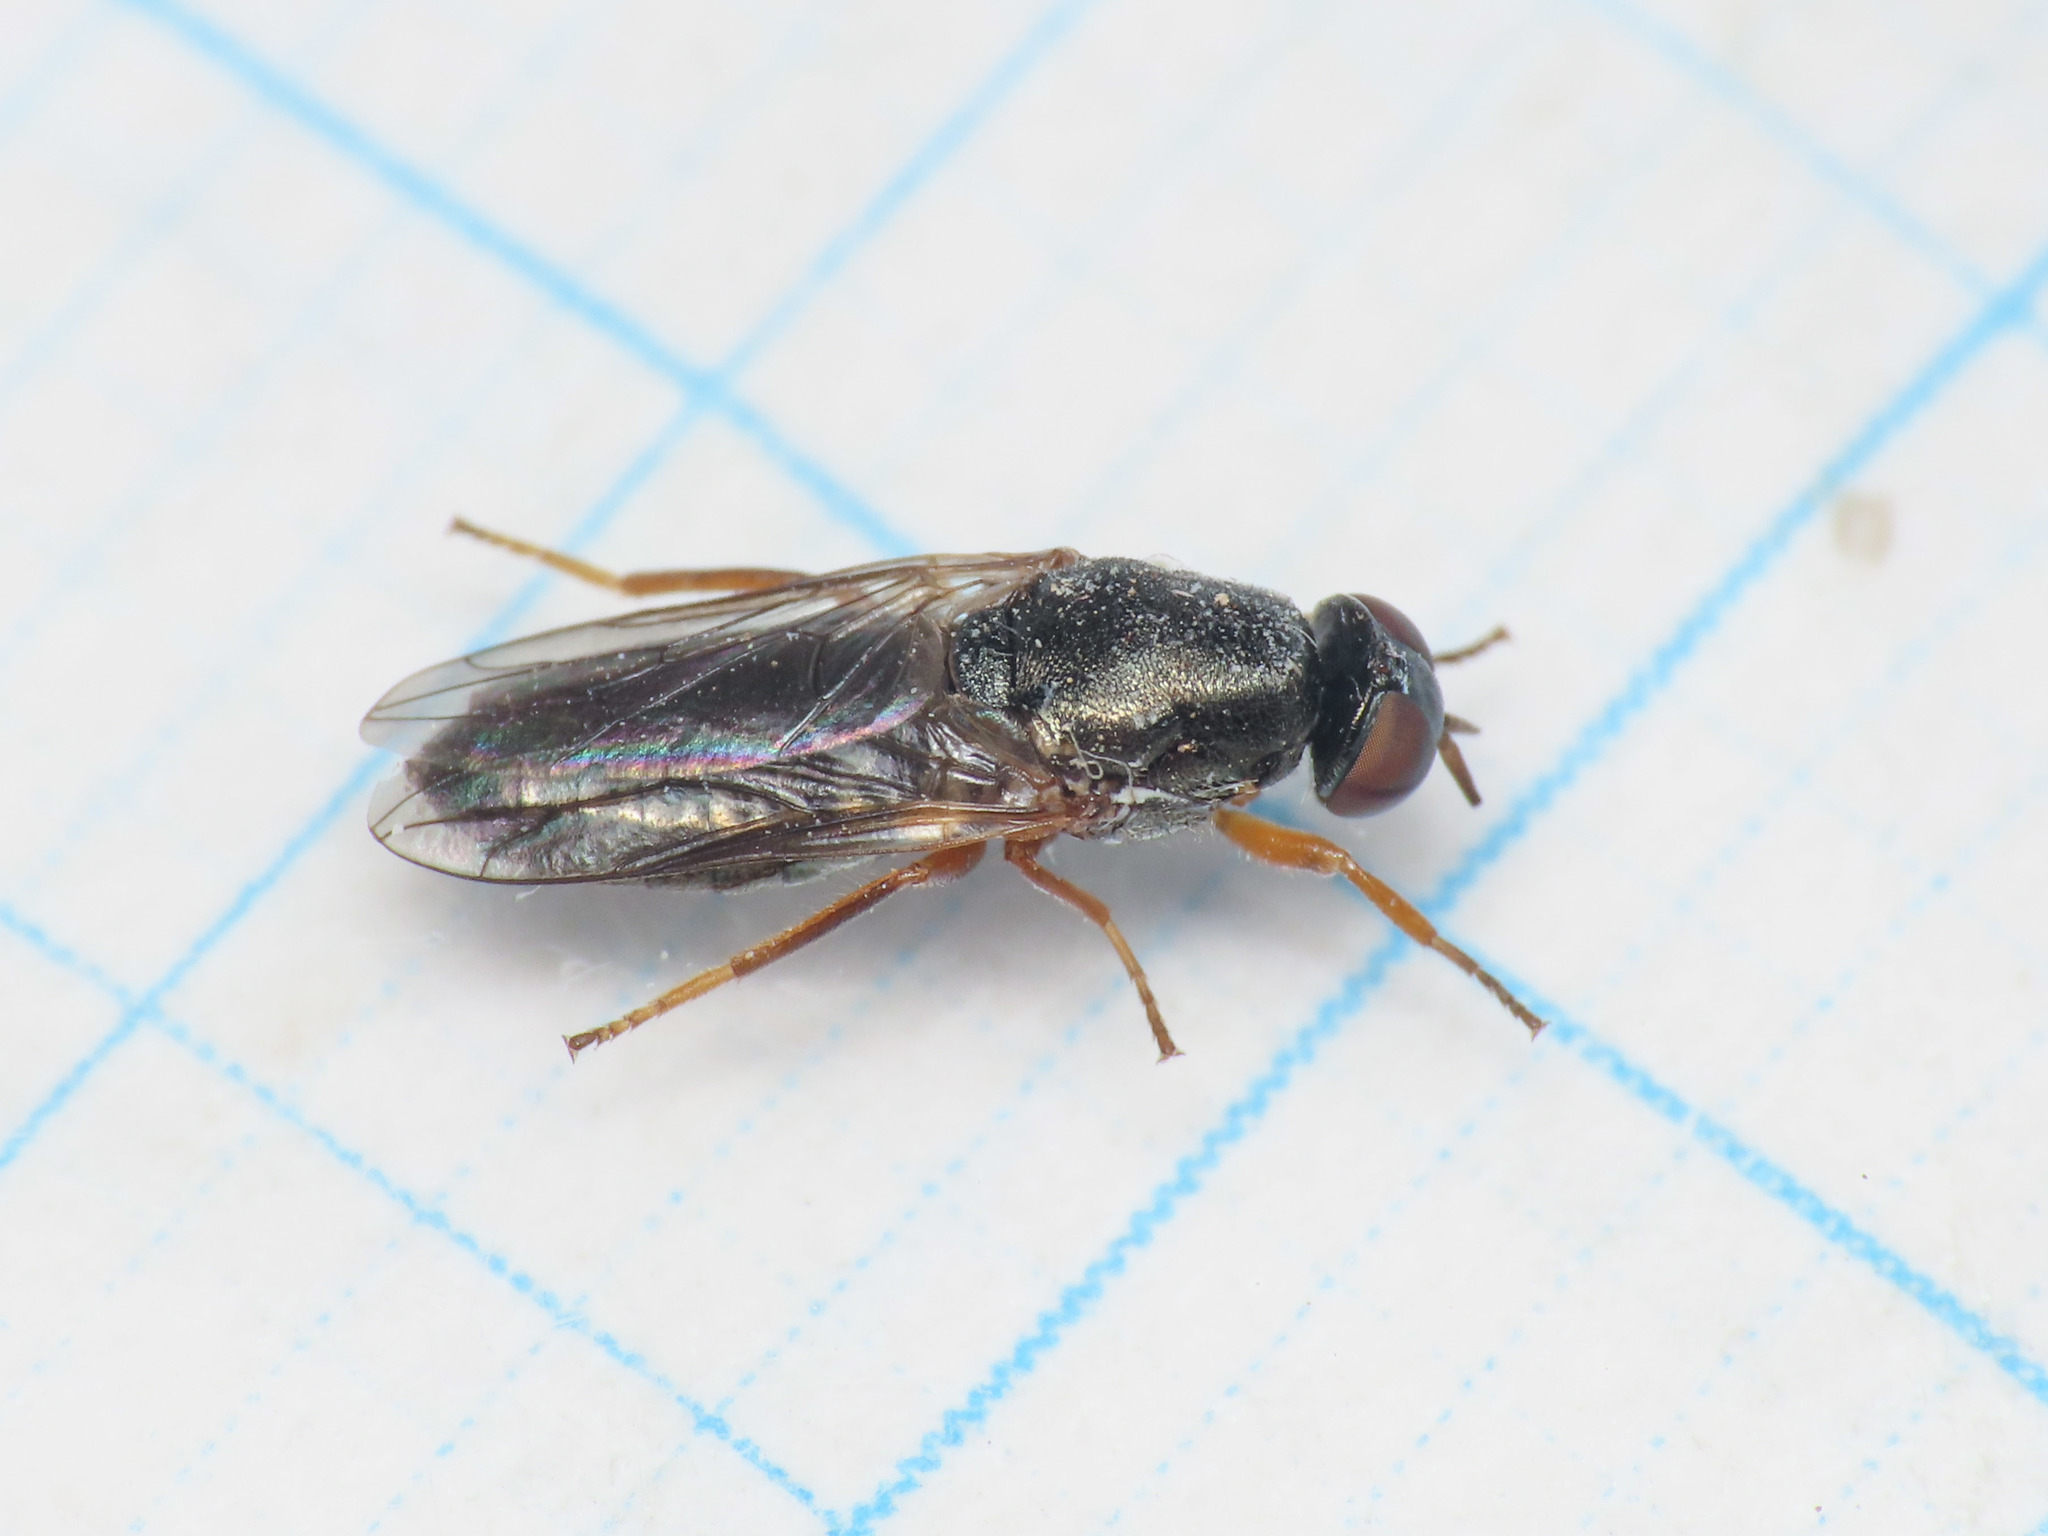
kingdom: Animalia
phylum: Arthropoda
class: Insecta
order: Diptera
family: Scenopinidae
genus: Scenopinus
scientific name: Scenopinus glabrifrons
